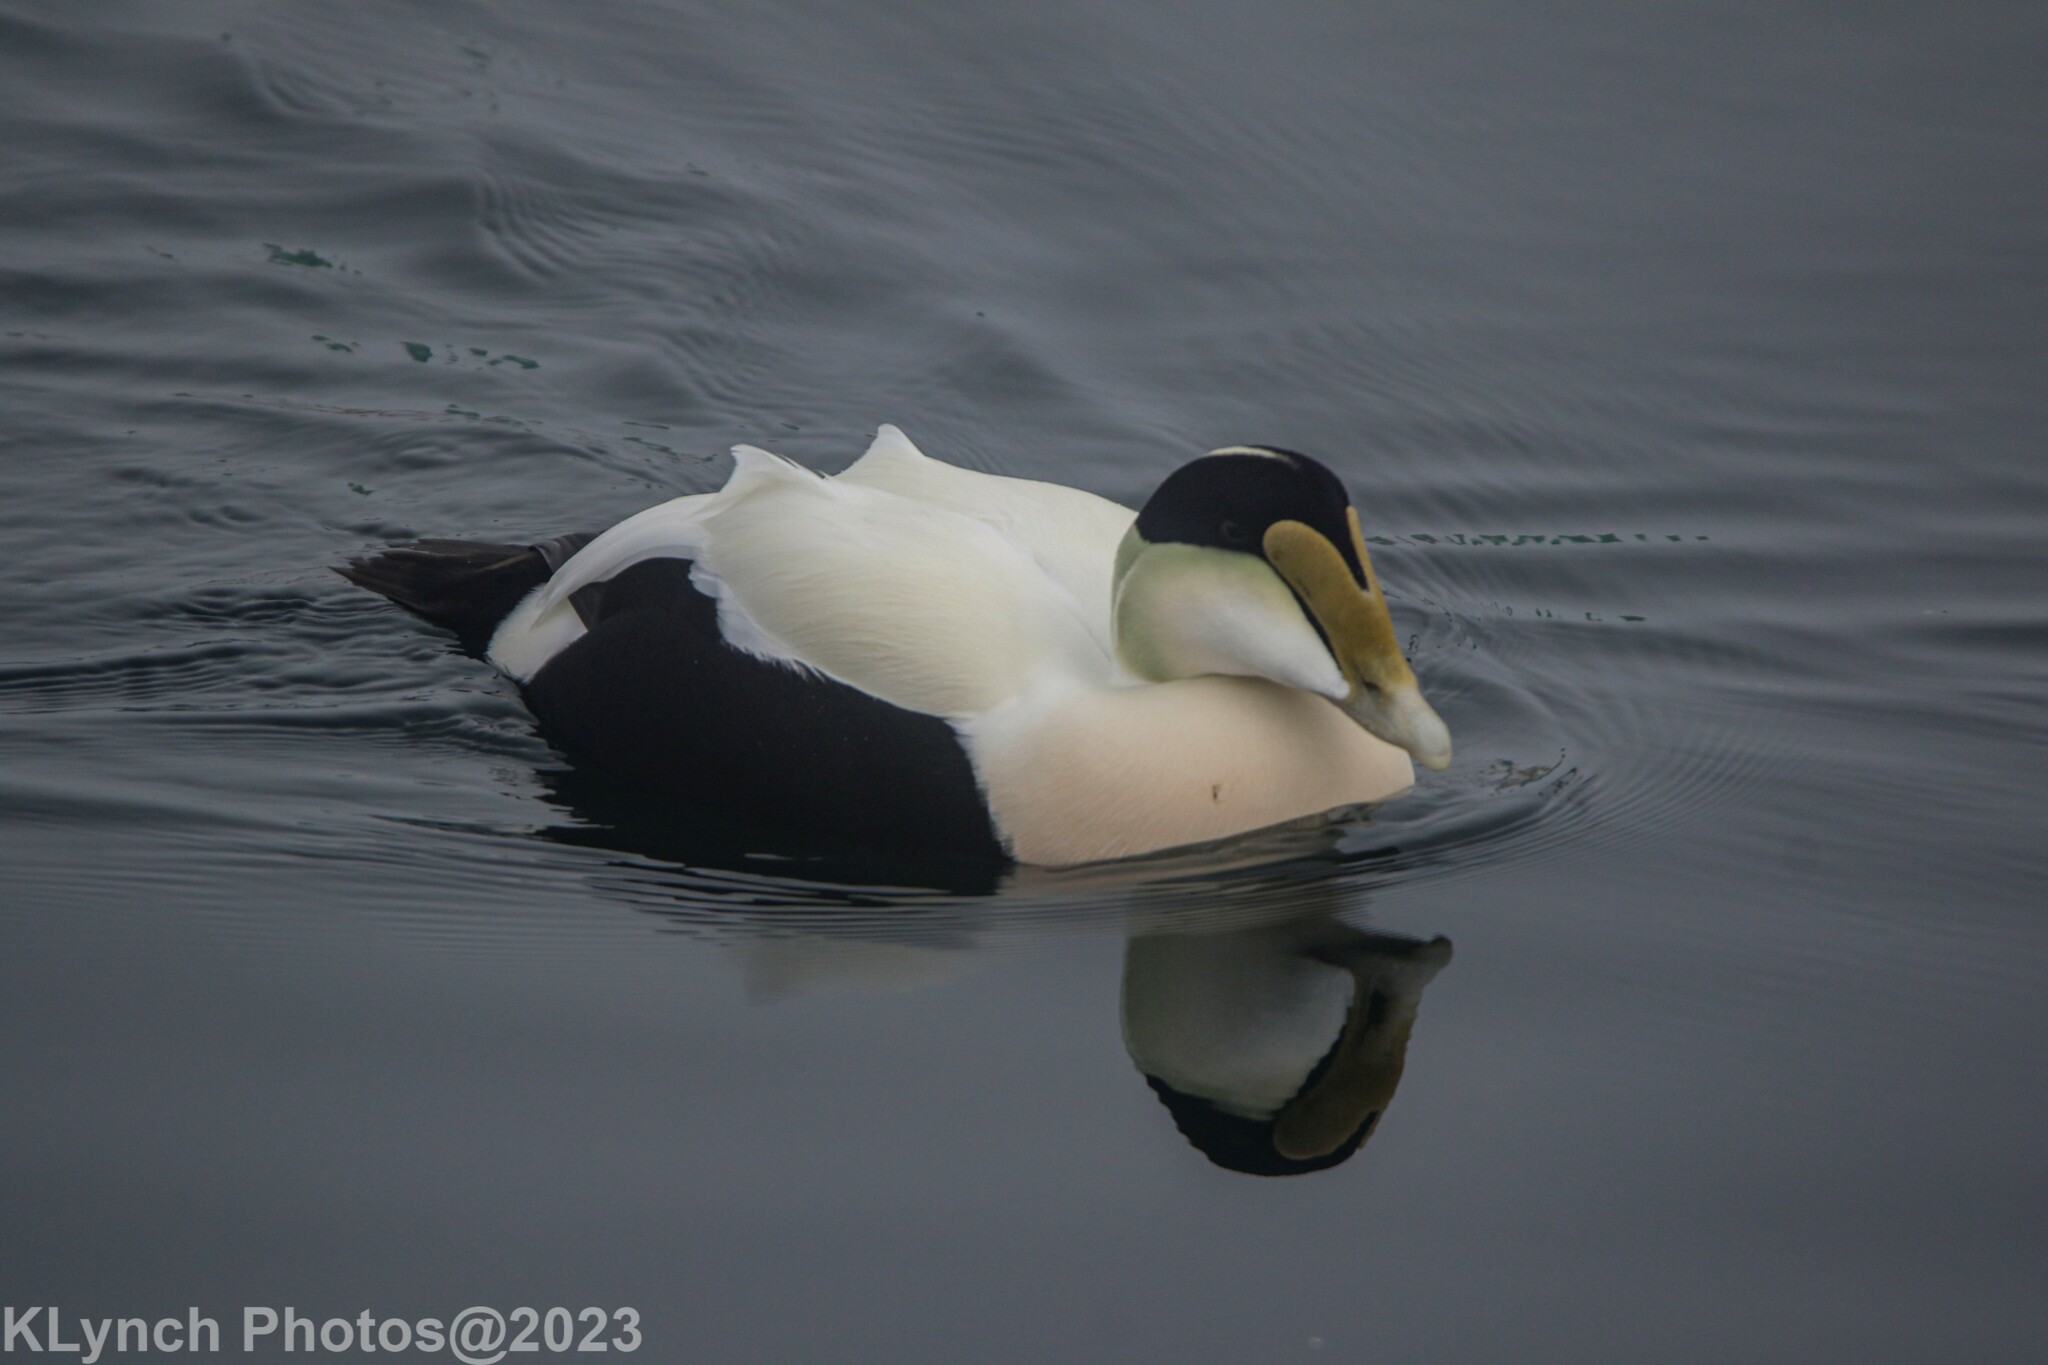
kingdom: Animalia
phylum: Chordata
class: Aves
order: Anseriformes
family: Anatidae
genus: Somateria
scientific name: Somateria mollissima
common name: Common eider
